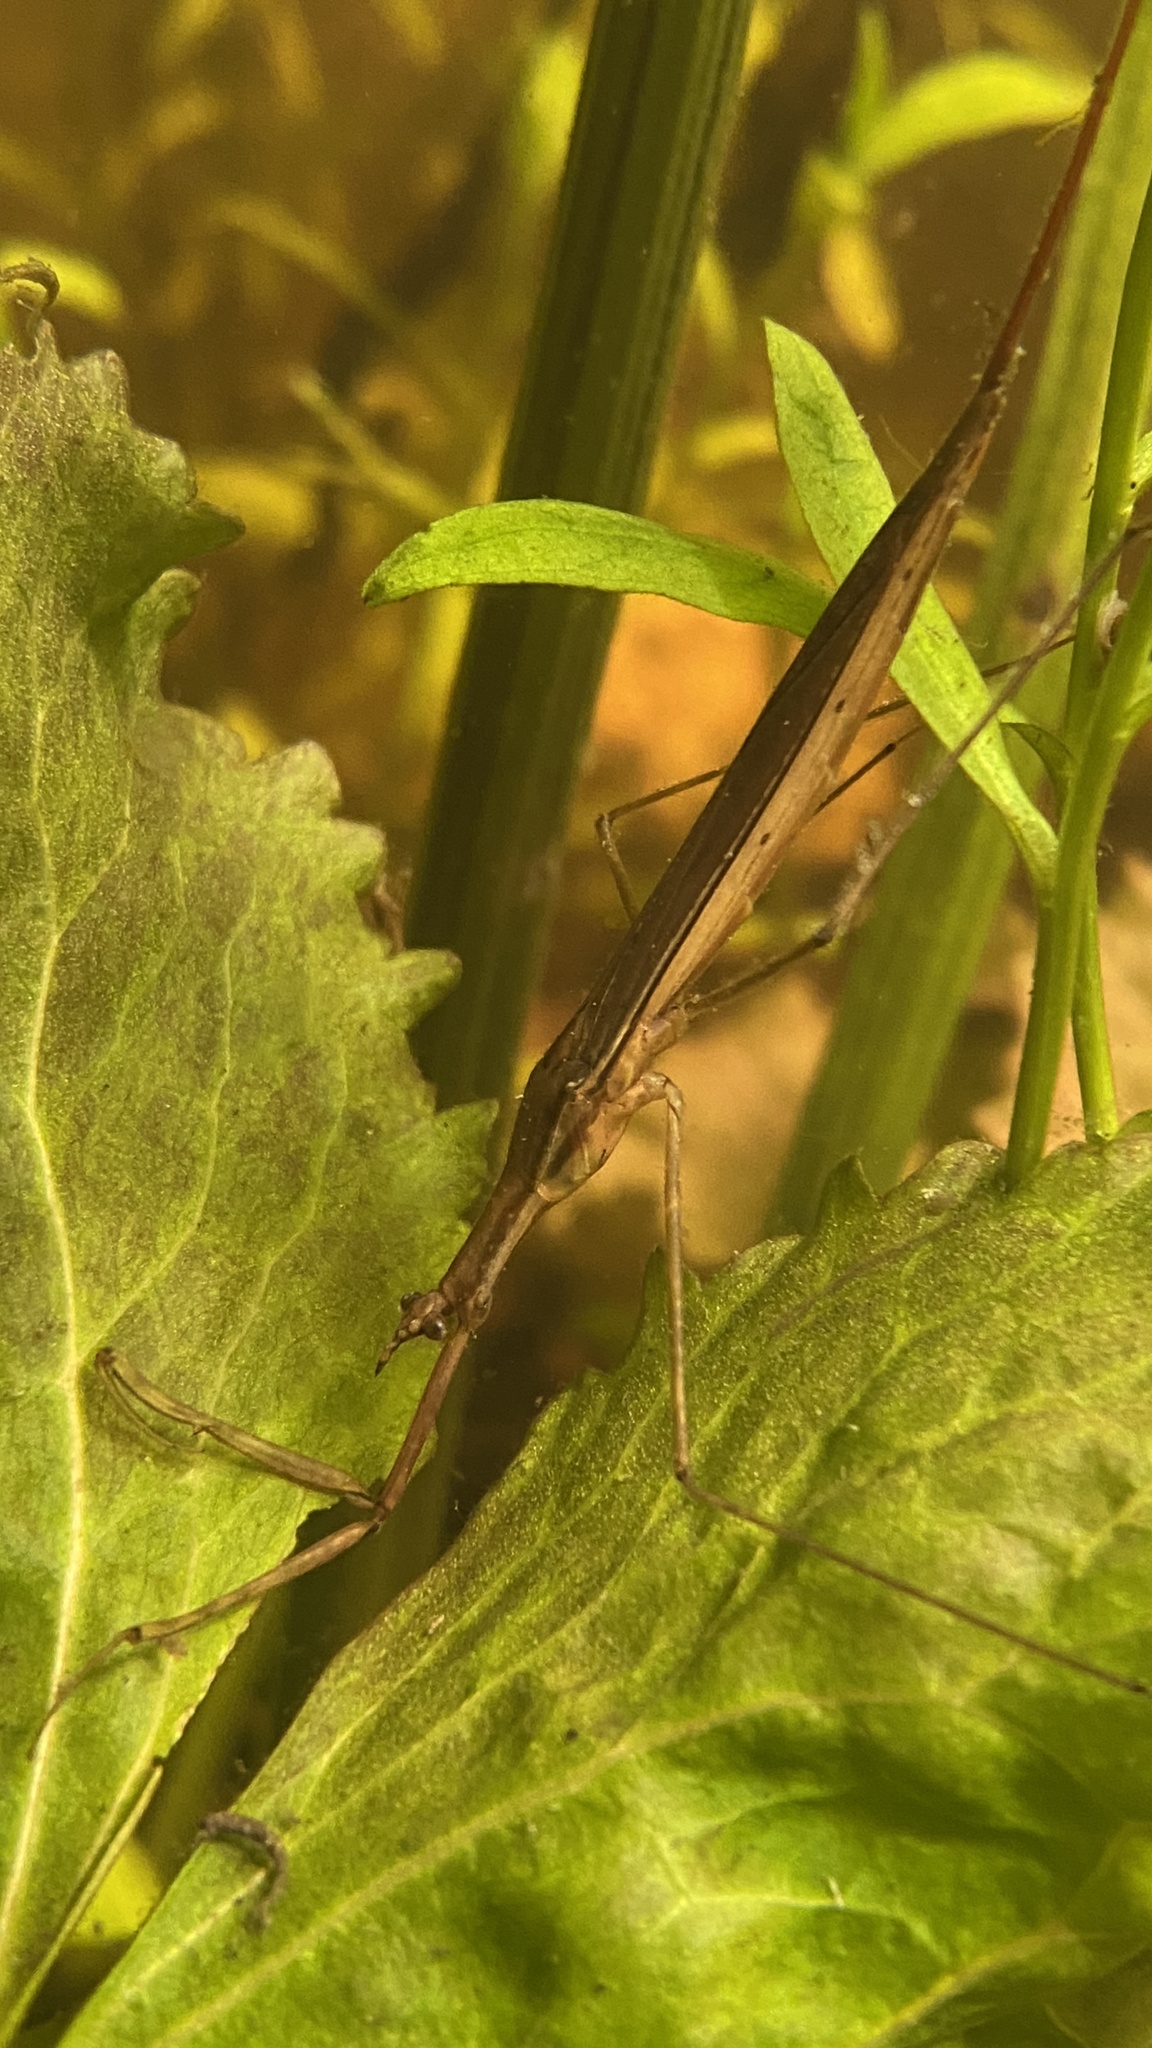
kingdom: Animalia
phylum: Arthropoda
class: Insecta
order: Hemiptera
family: Nepidae
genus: Ranatra
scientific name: Ranatra linearis
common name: Water stick insect
